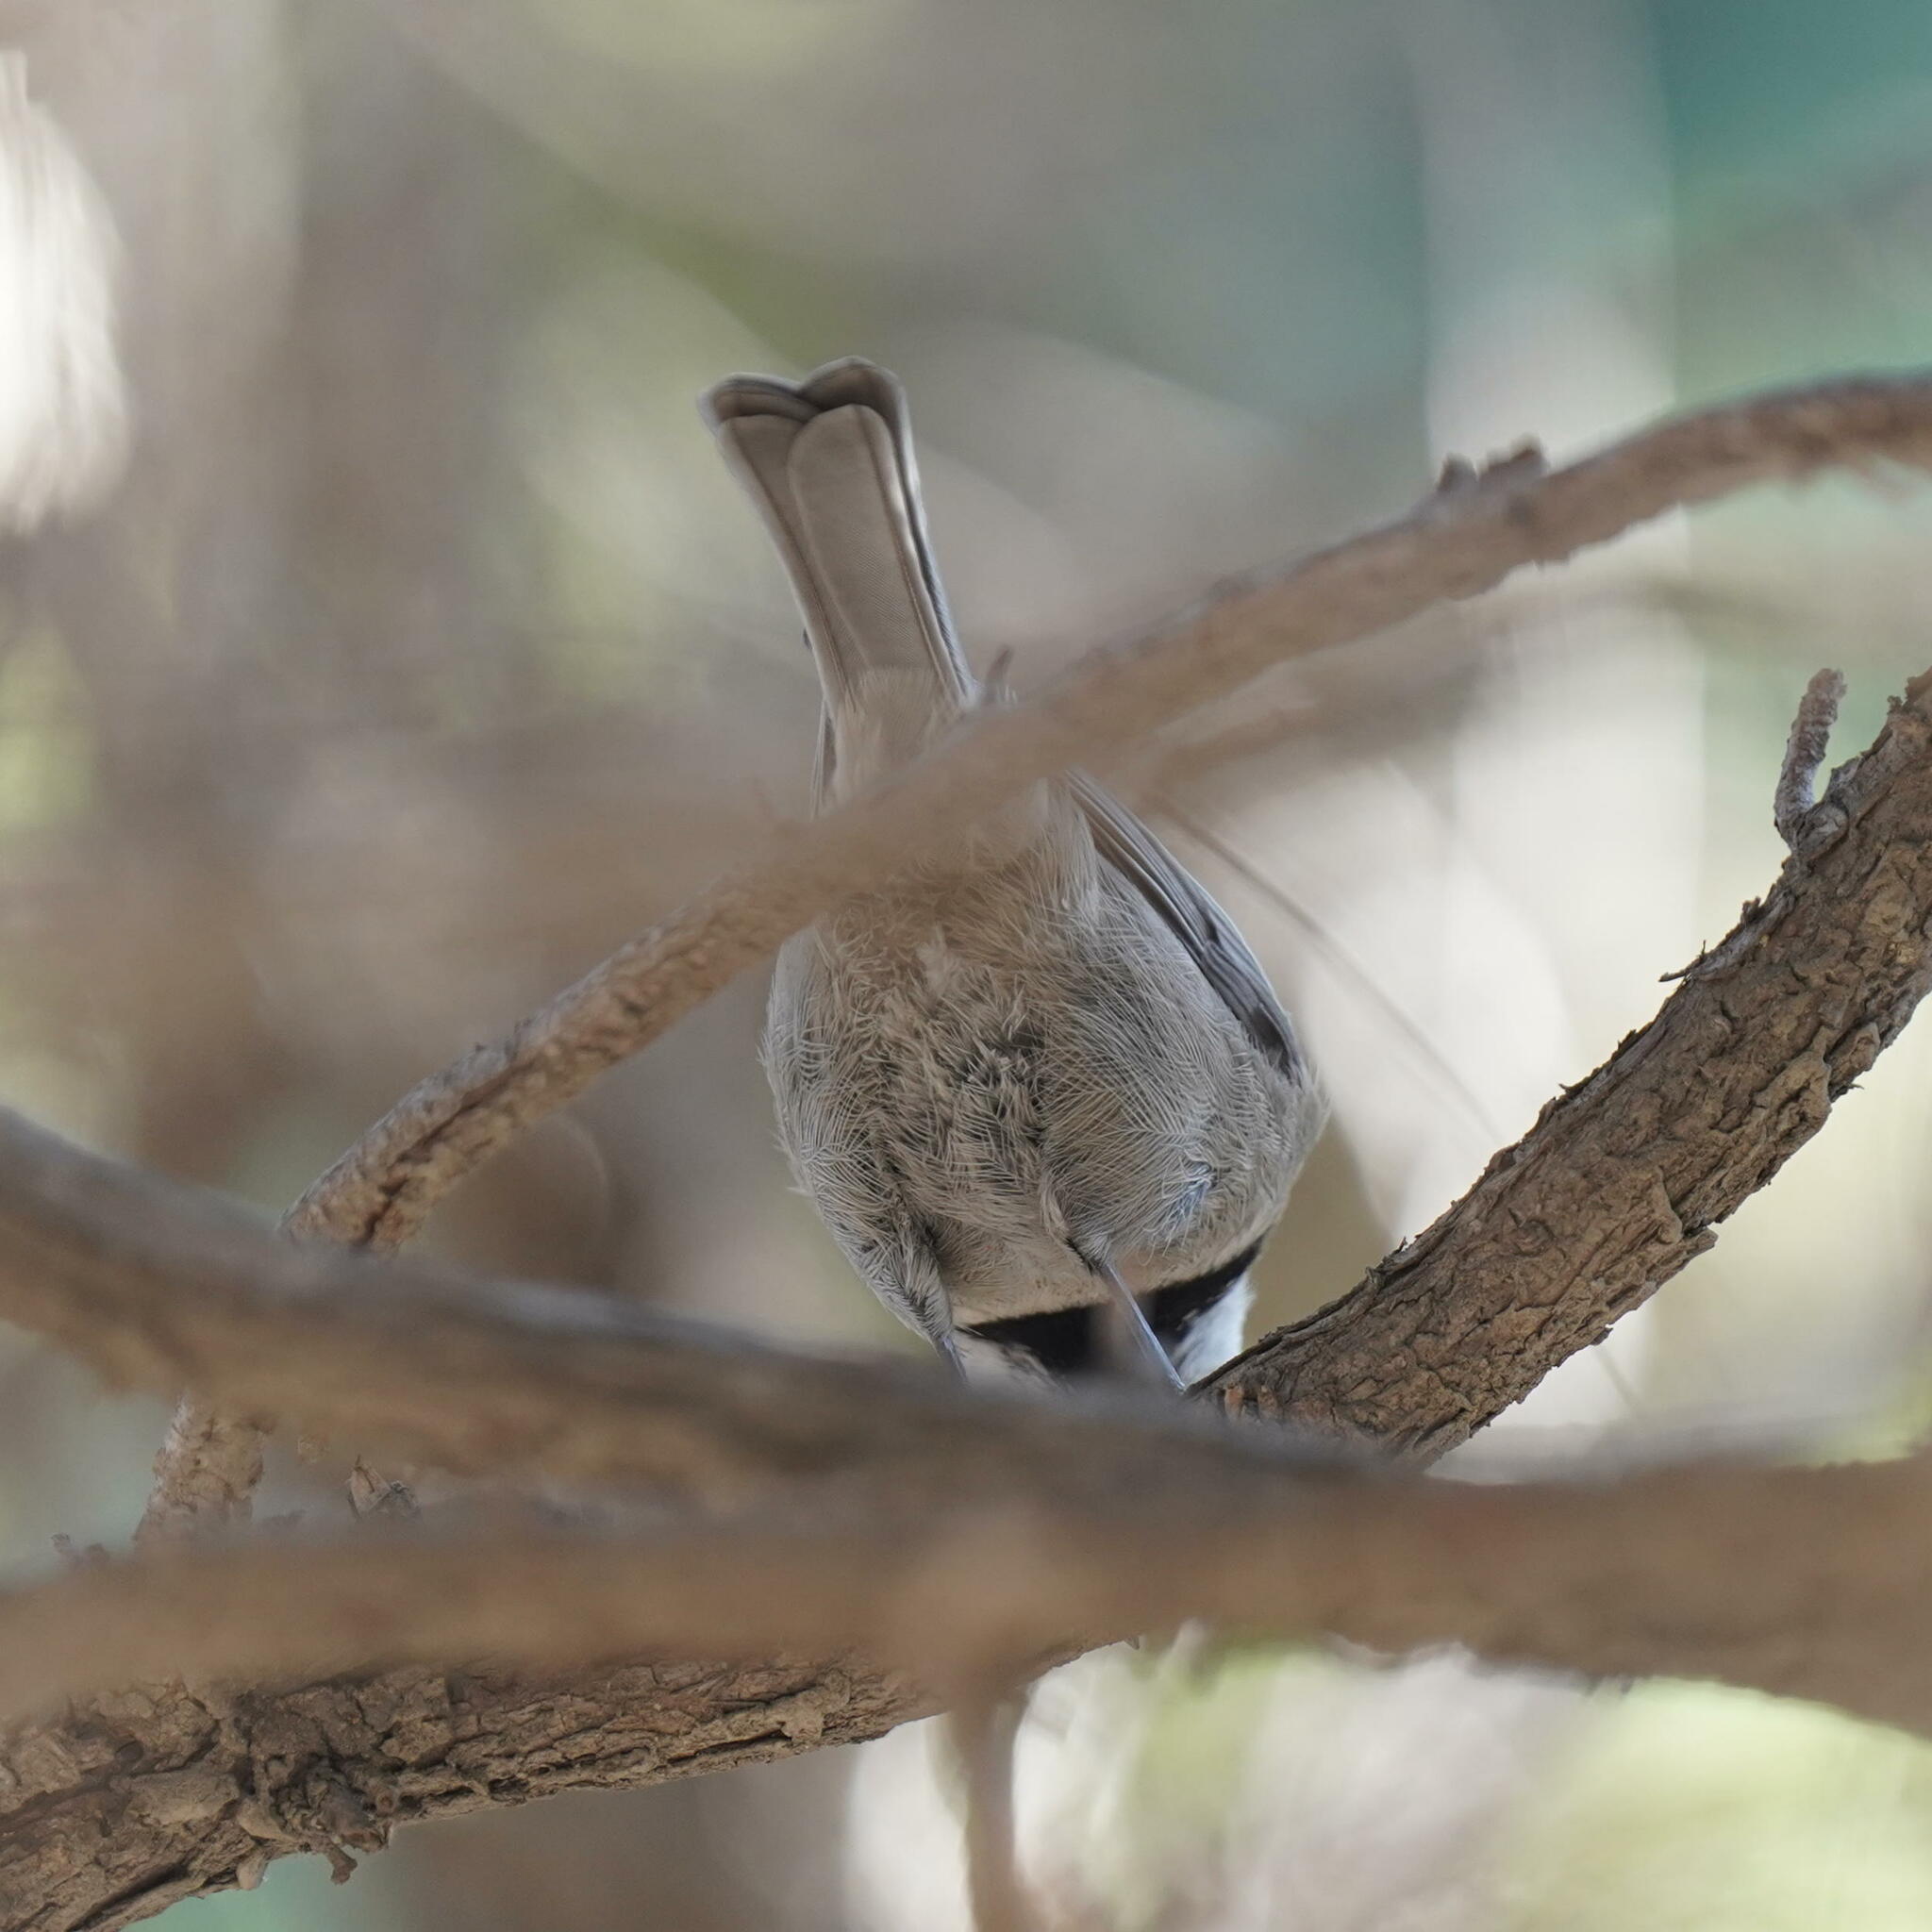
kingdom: Animalia
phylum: Chordata
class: Aves
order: Passeriformes
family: Paridae
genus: Poecile
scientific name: Poecile gambeli
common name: Mountain chickadee
